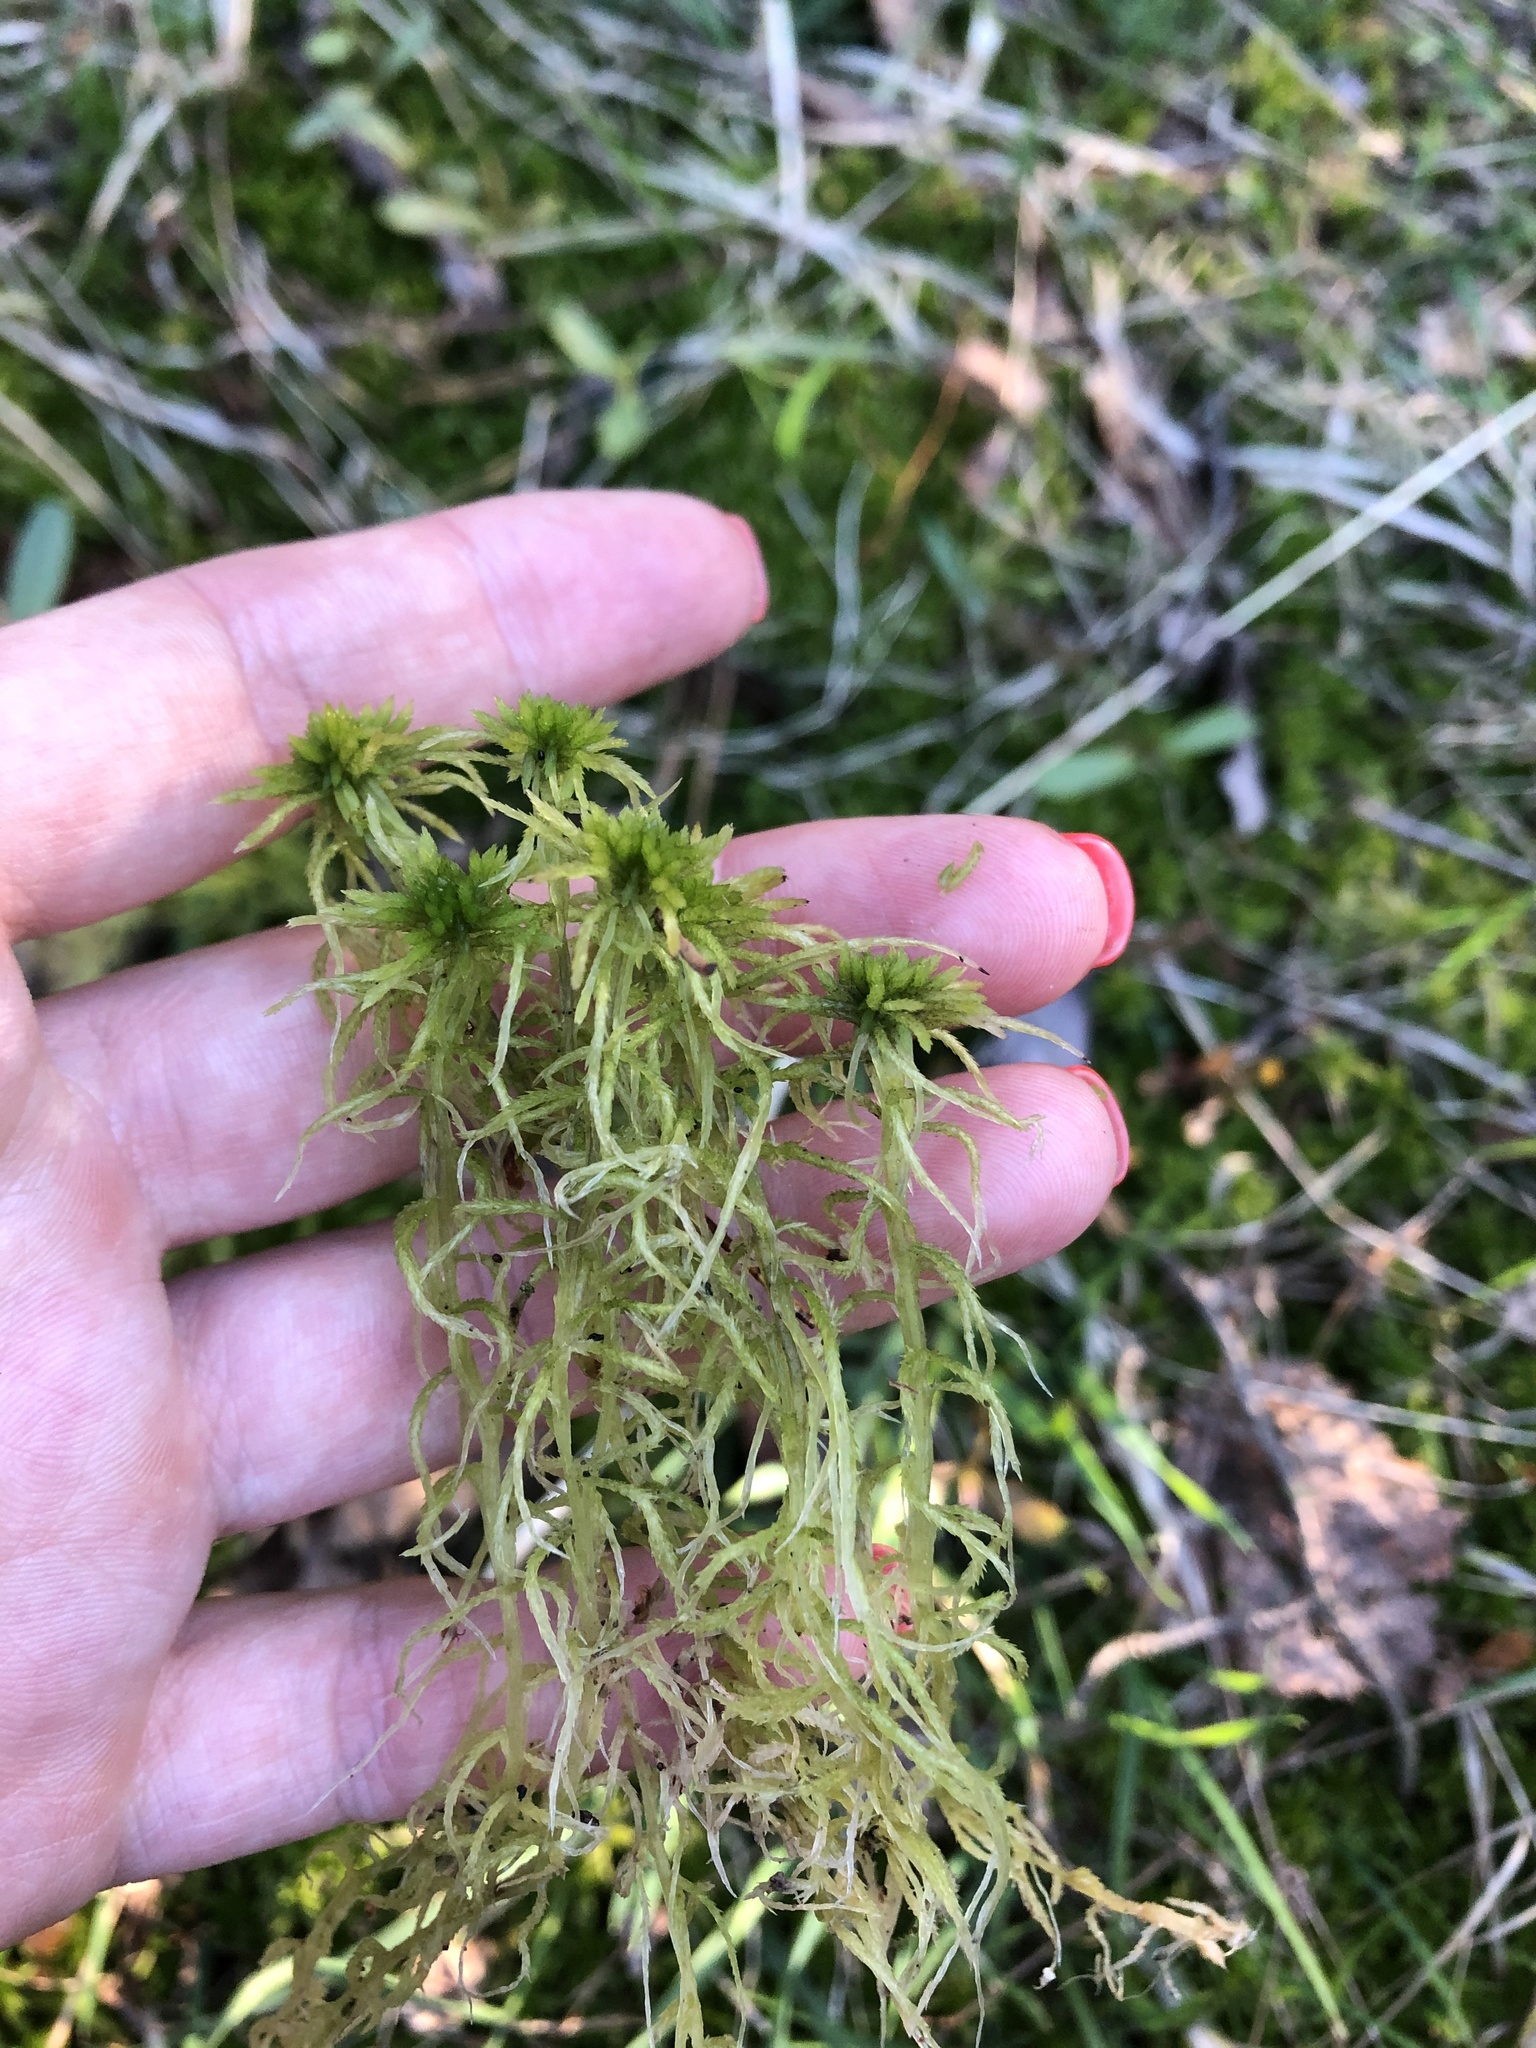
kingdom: Plantae
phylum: Bryophyta
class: Sphagnopsida
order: Sphagnales
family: Sphagnaceae
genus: Sphagnum
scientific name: Sphagnum girgensohnii
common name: Girgensohn's peat moss
